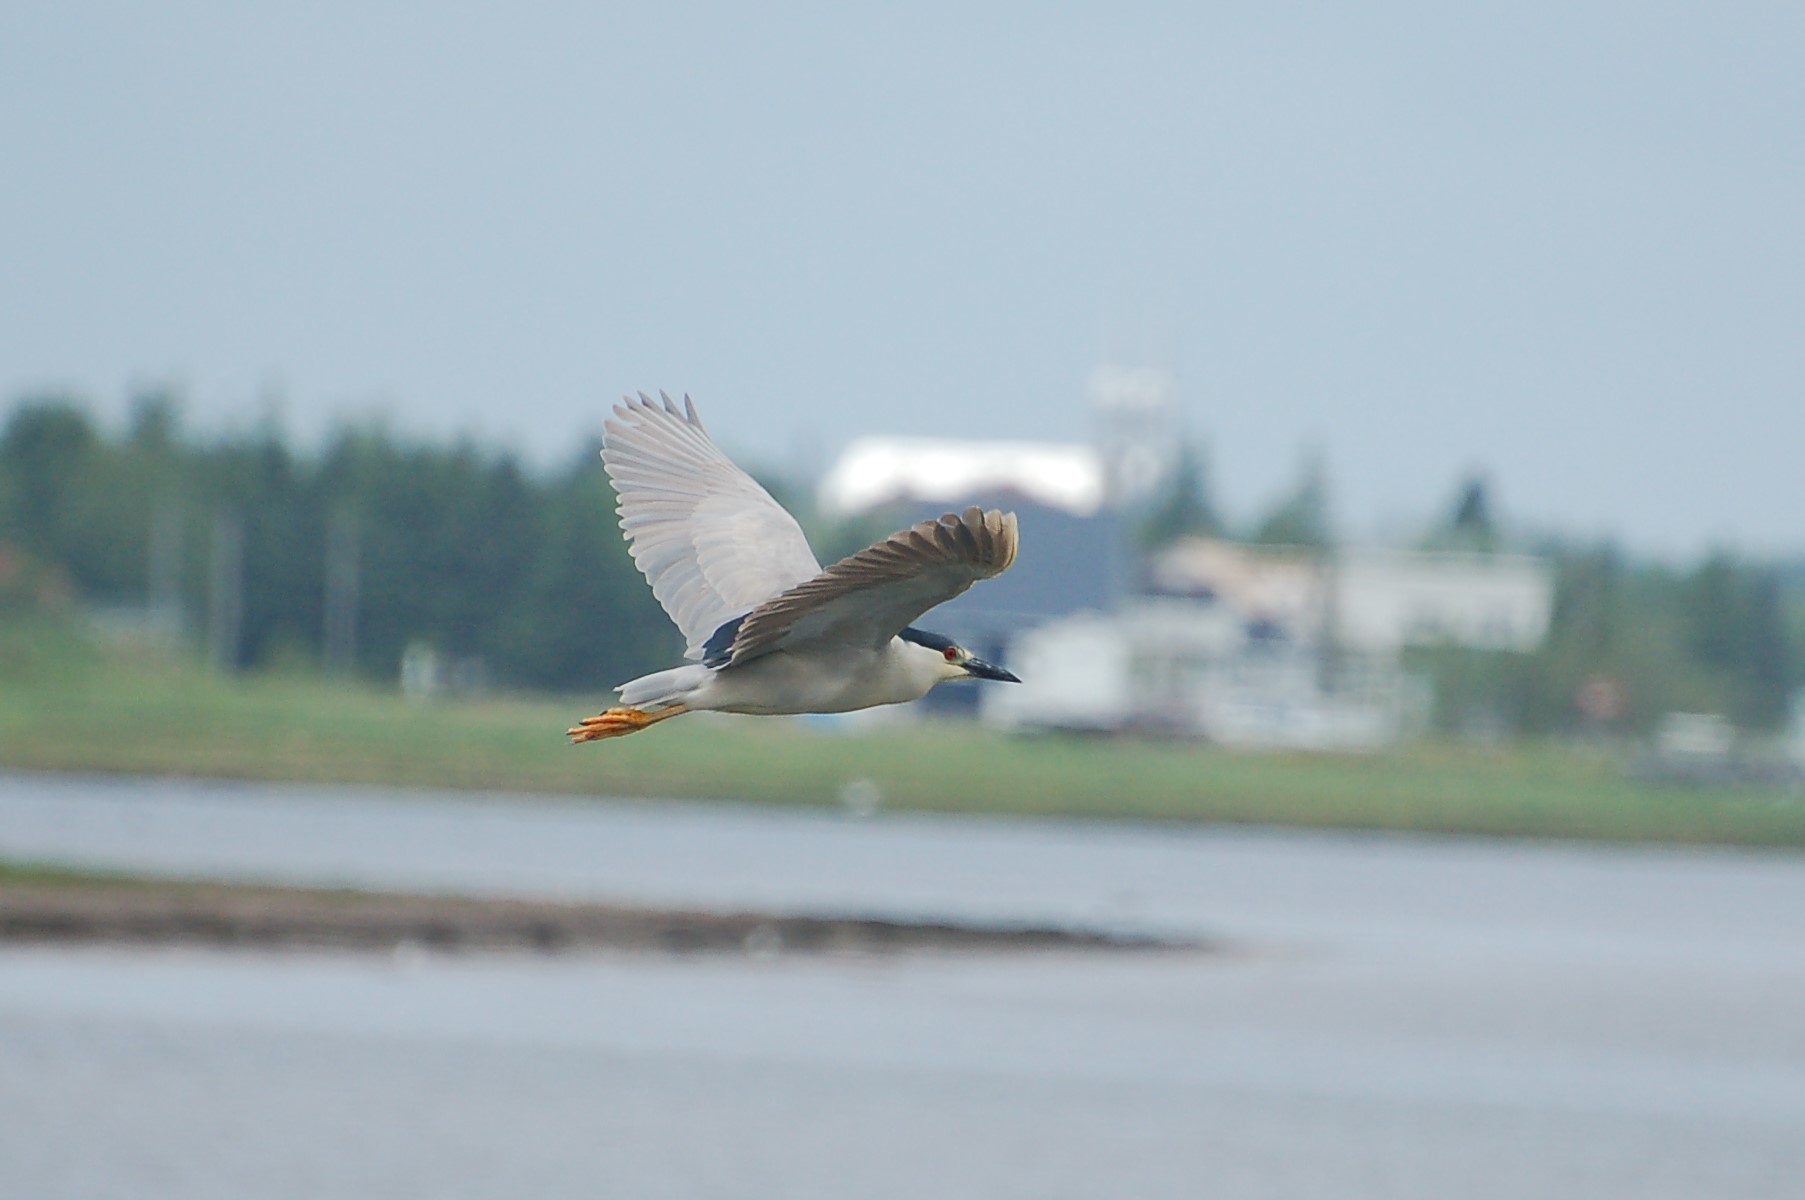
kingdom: Animalia
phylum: Chordata
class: Aves
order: Pelecaniformes
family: Ardeidae
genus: Nycticorax
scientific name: Nycticorax nycticorax
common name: Black-crowned night heron
